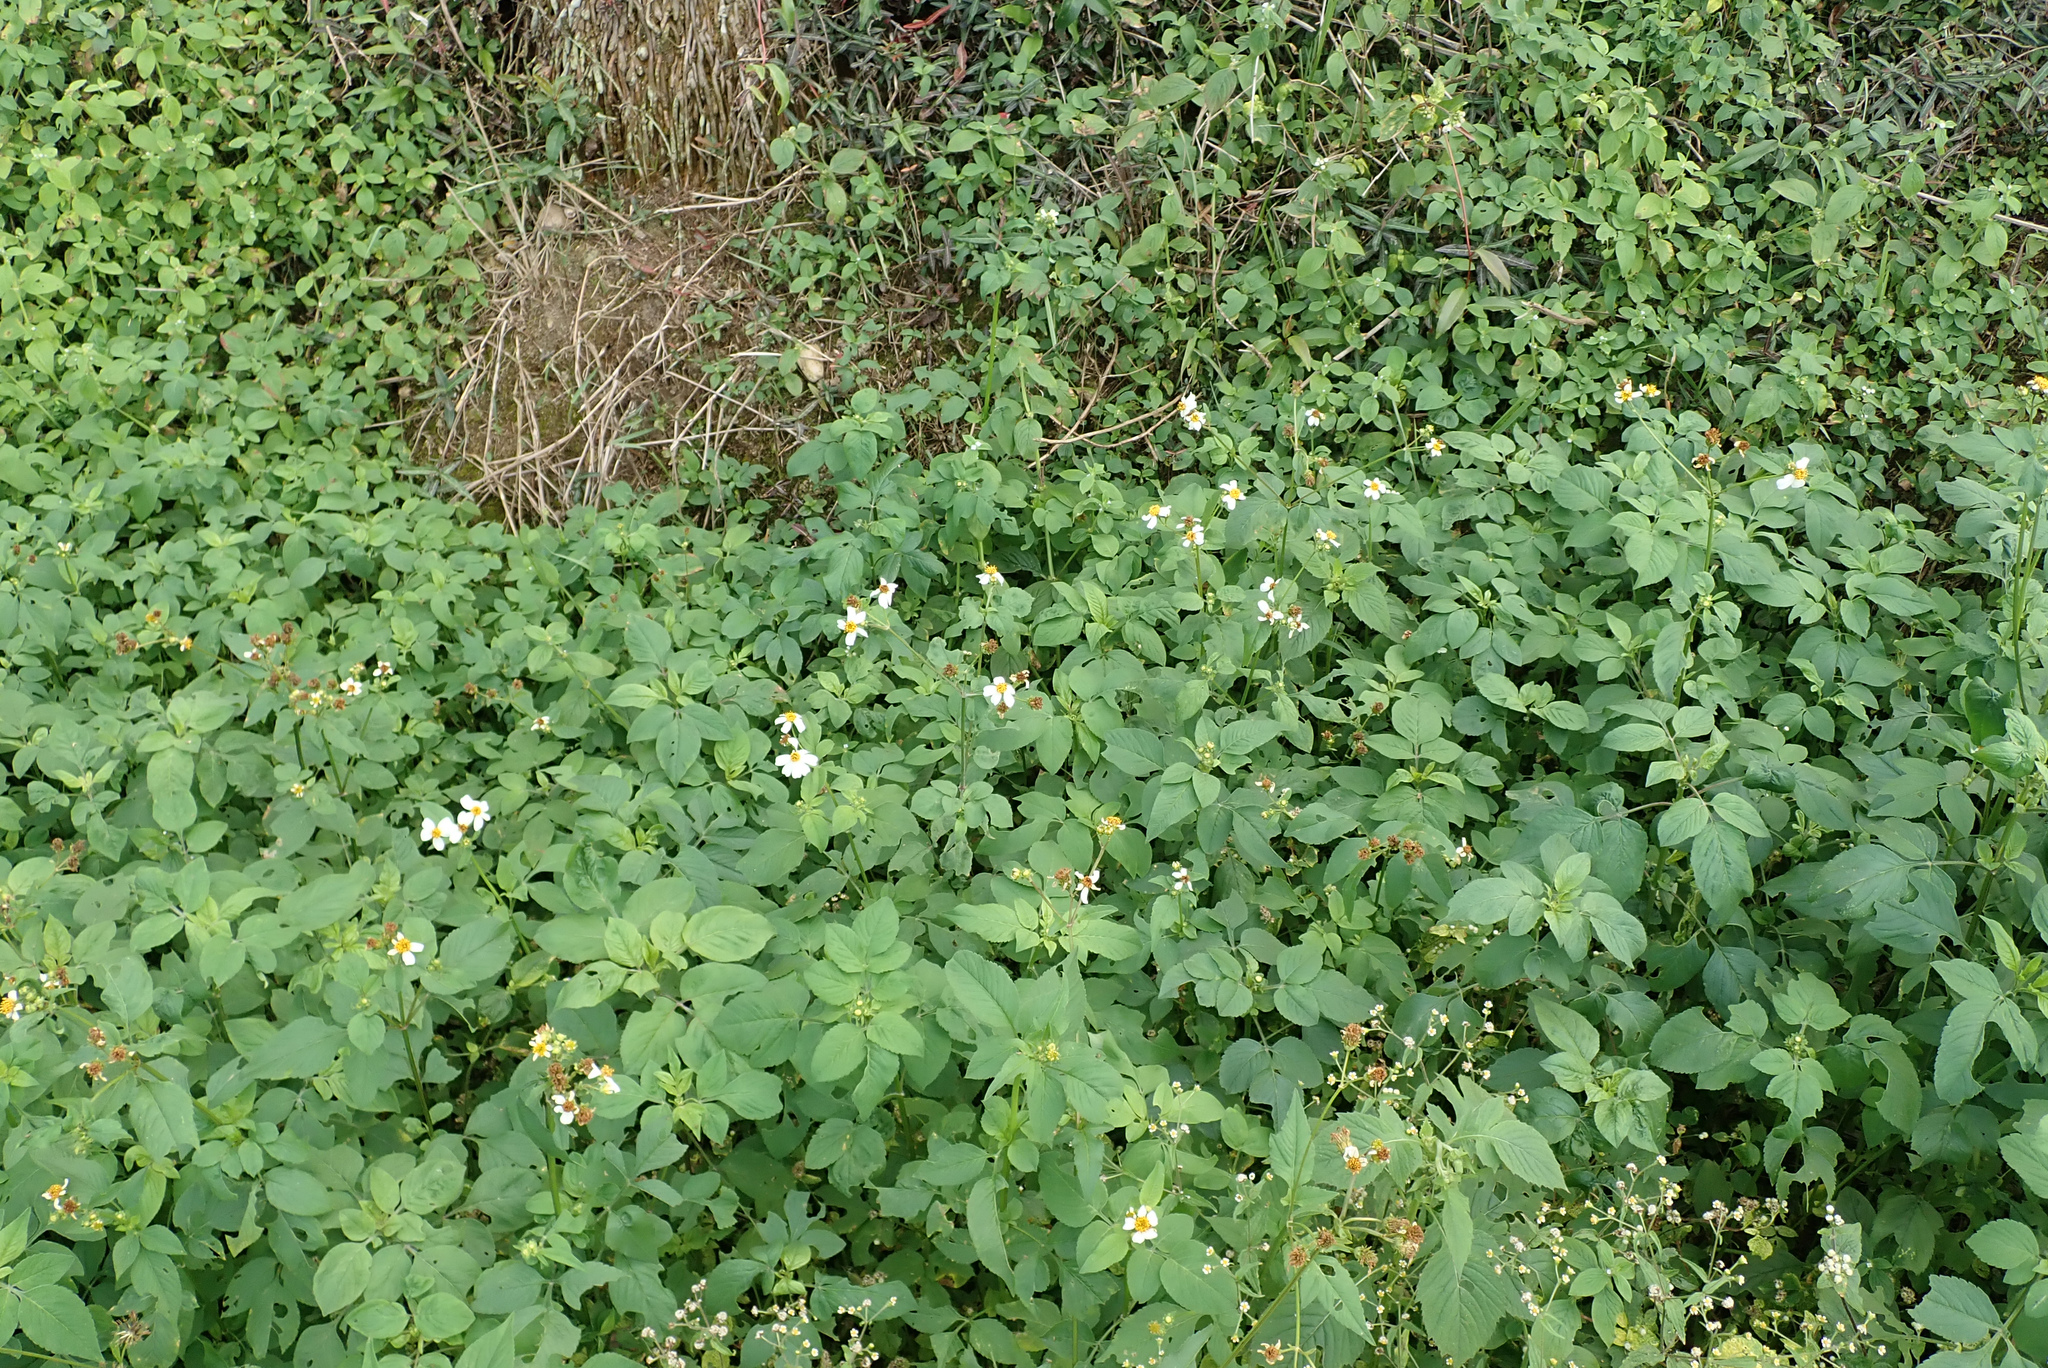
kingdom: Plantae
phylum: Tracheophyta
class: Magnoliopsida
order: Asterales
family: Asteraceae
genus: Bidens
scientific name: Bidens alba
